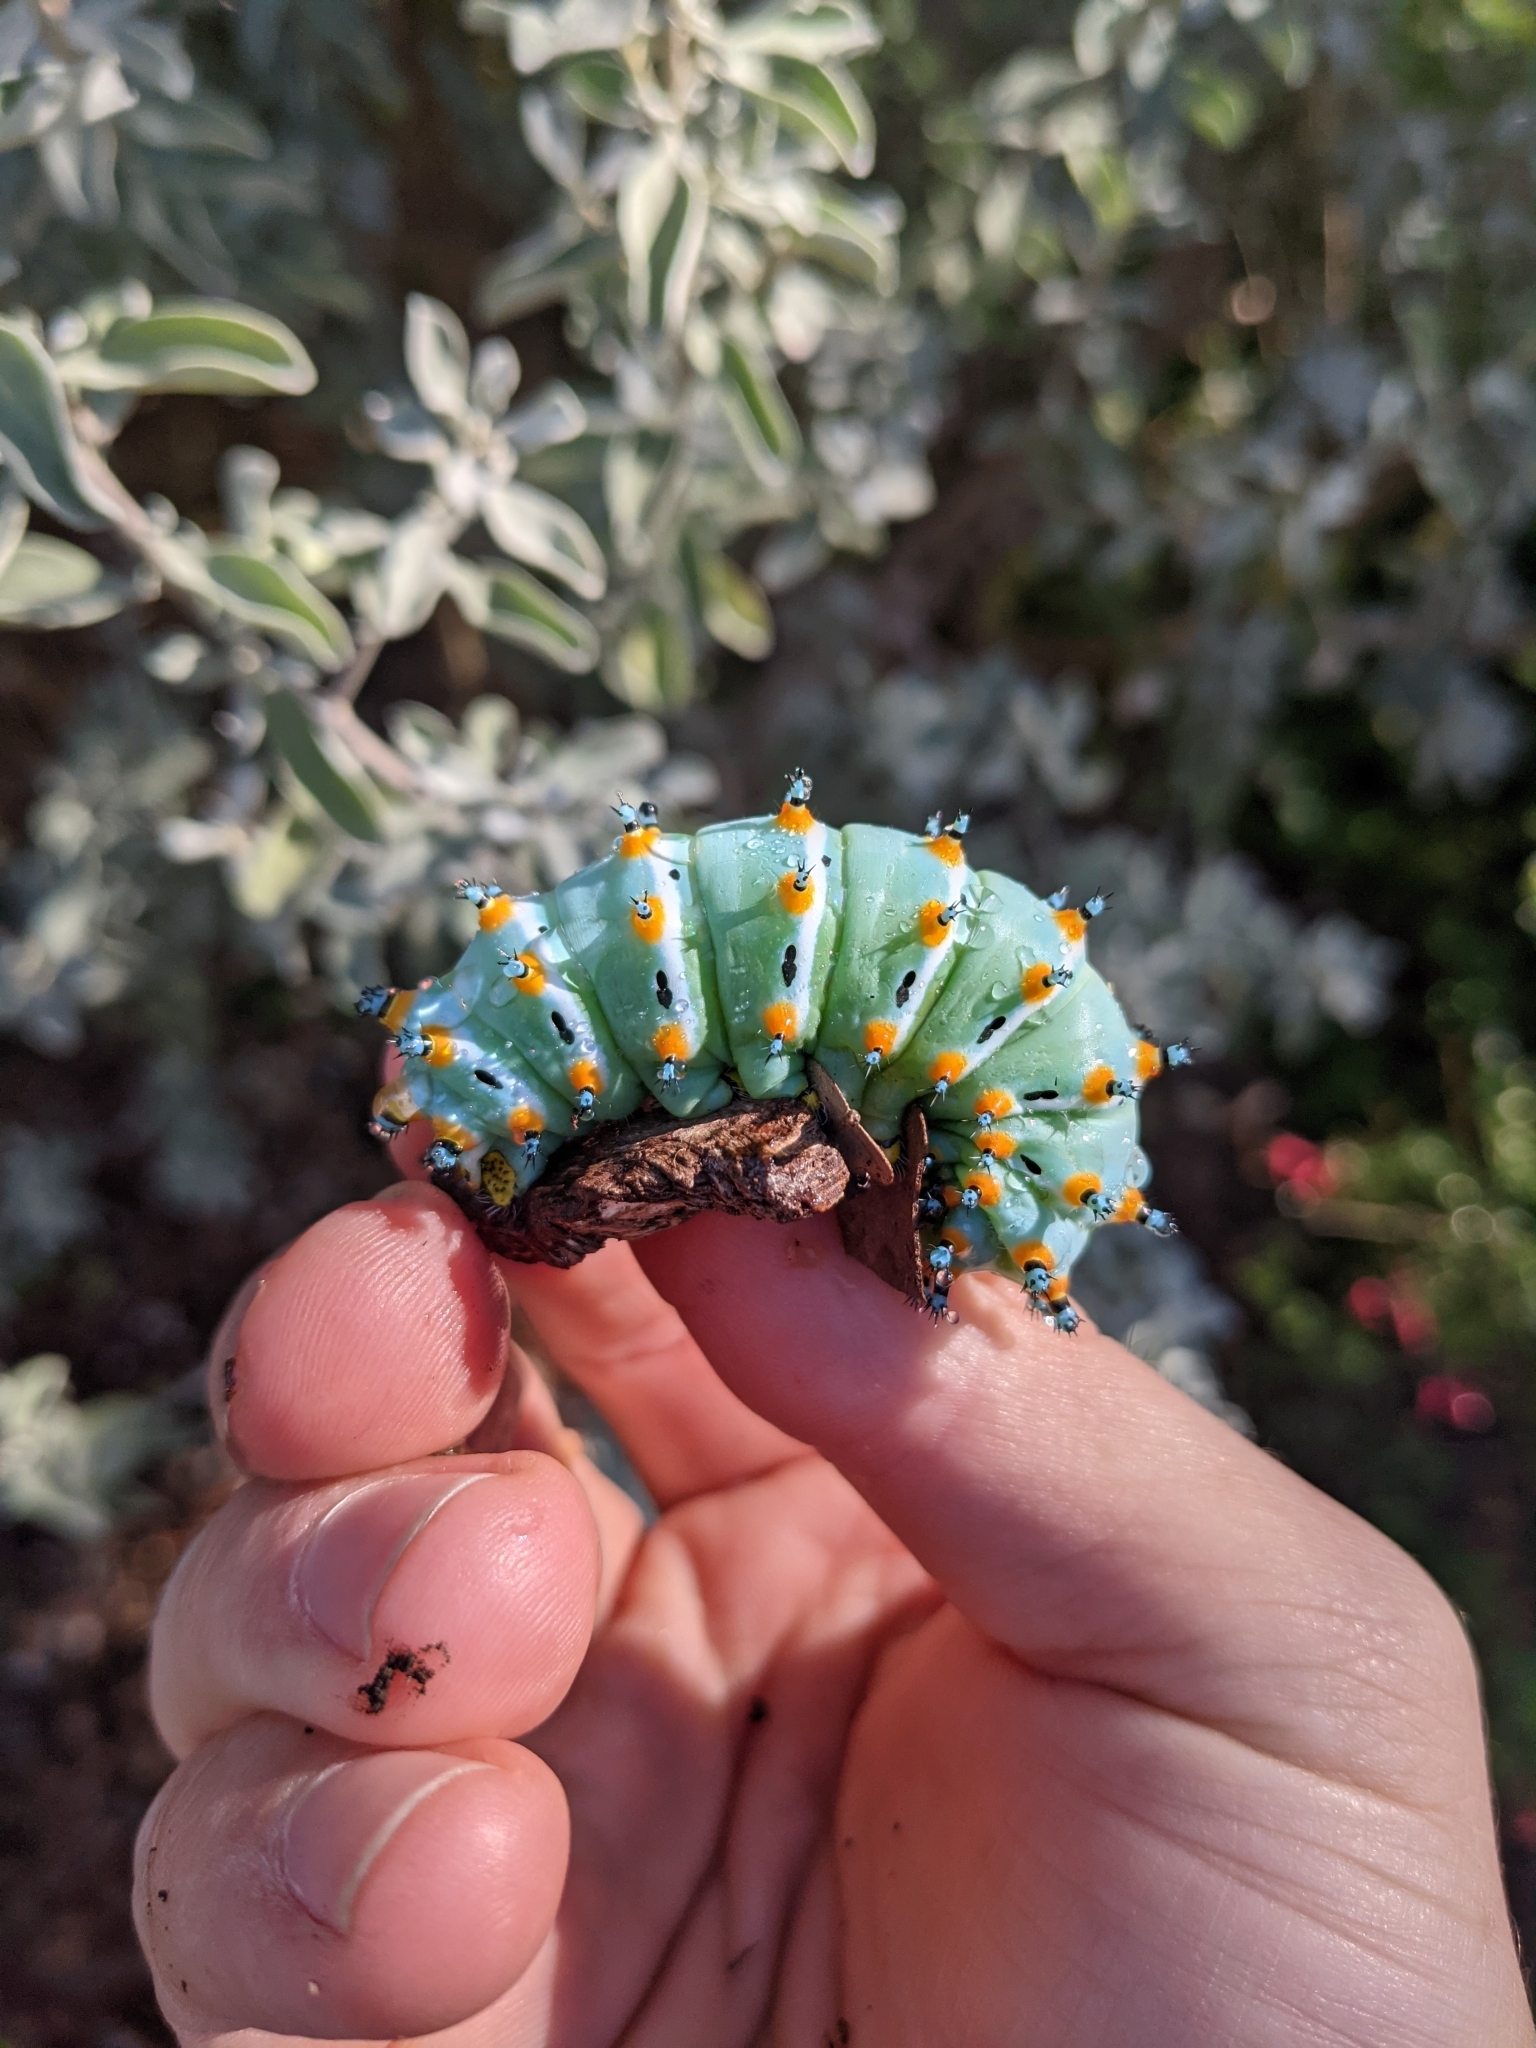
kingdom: Animalia
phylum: Arthropoda
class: Insecta
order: Lepidoptera
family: Saturniidae
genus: Eupackardia
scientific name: Eupackardia calleta
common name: Calleta silkmoth
